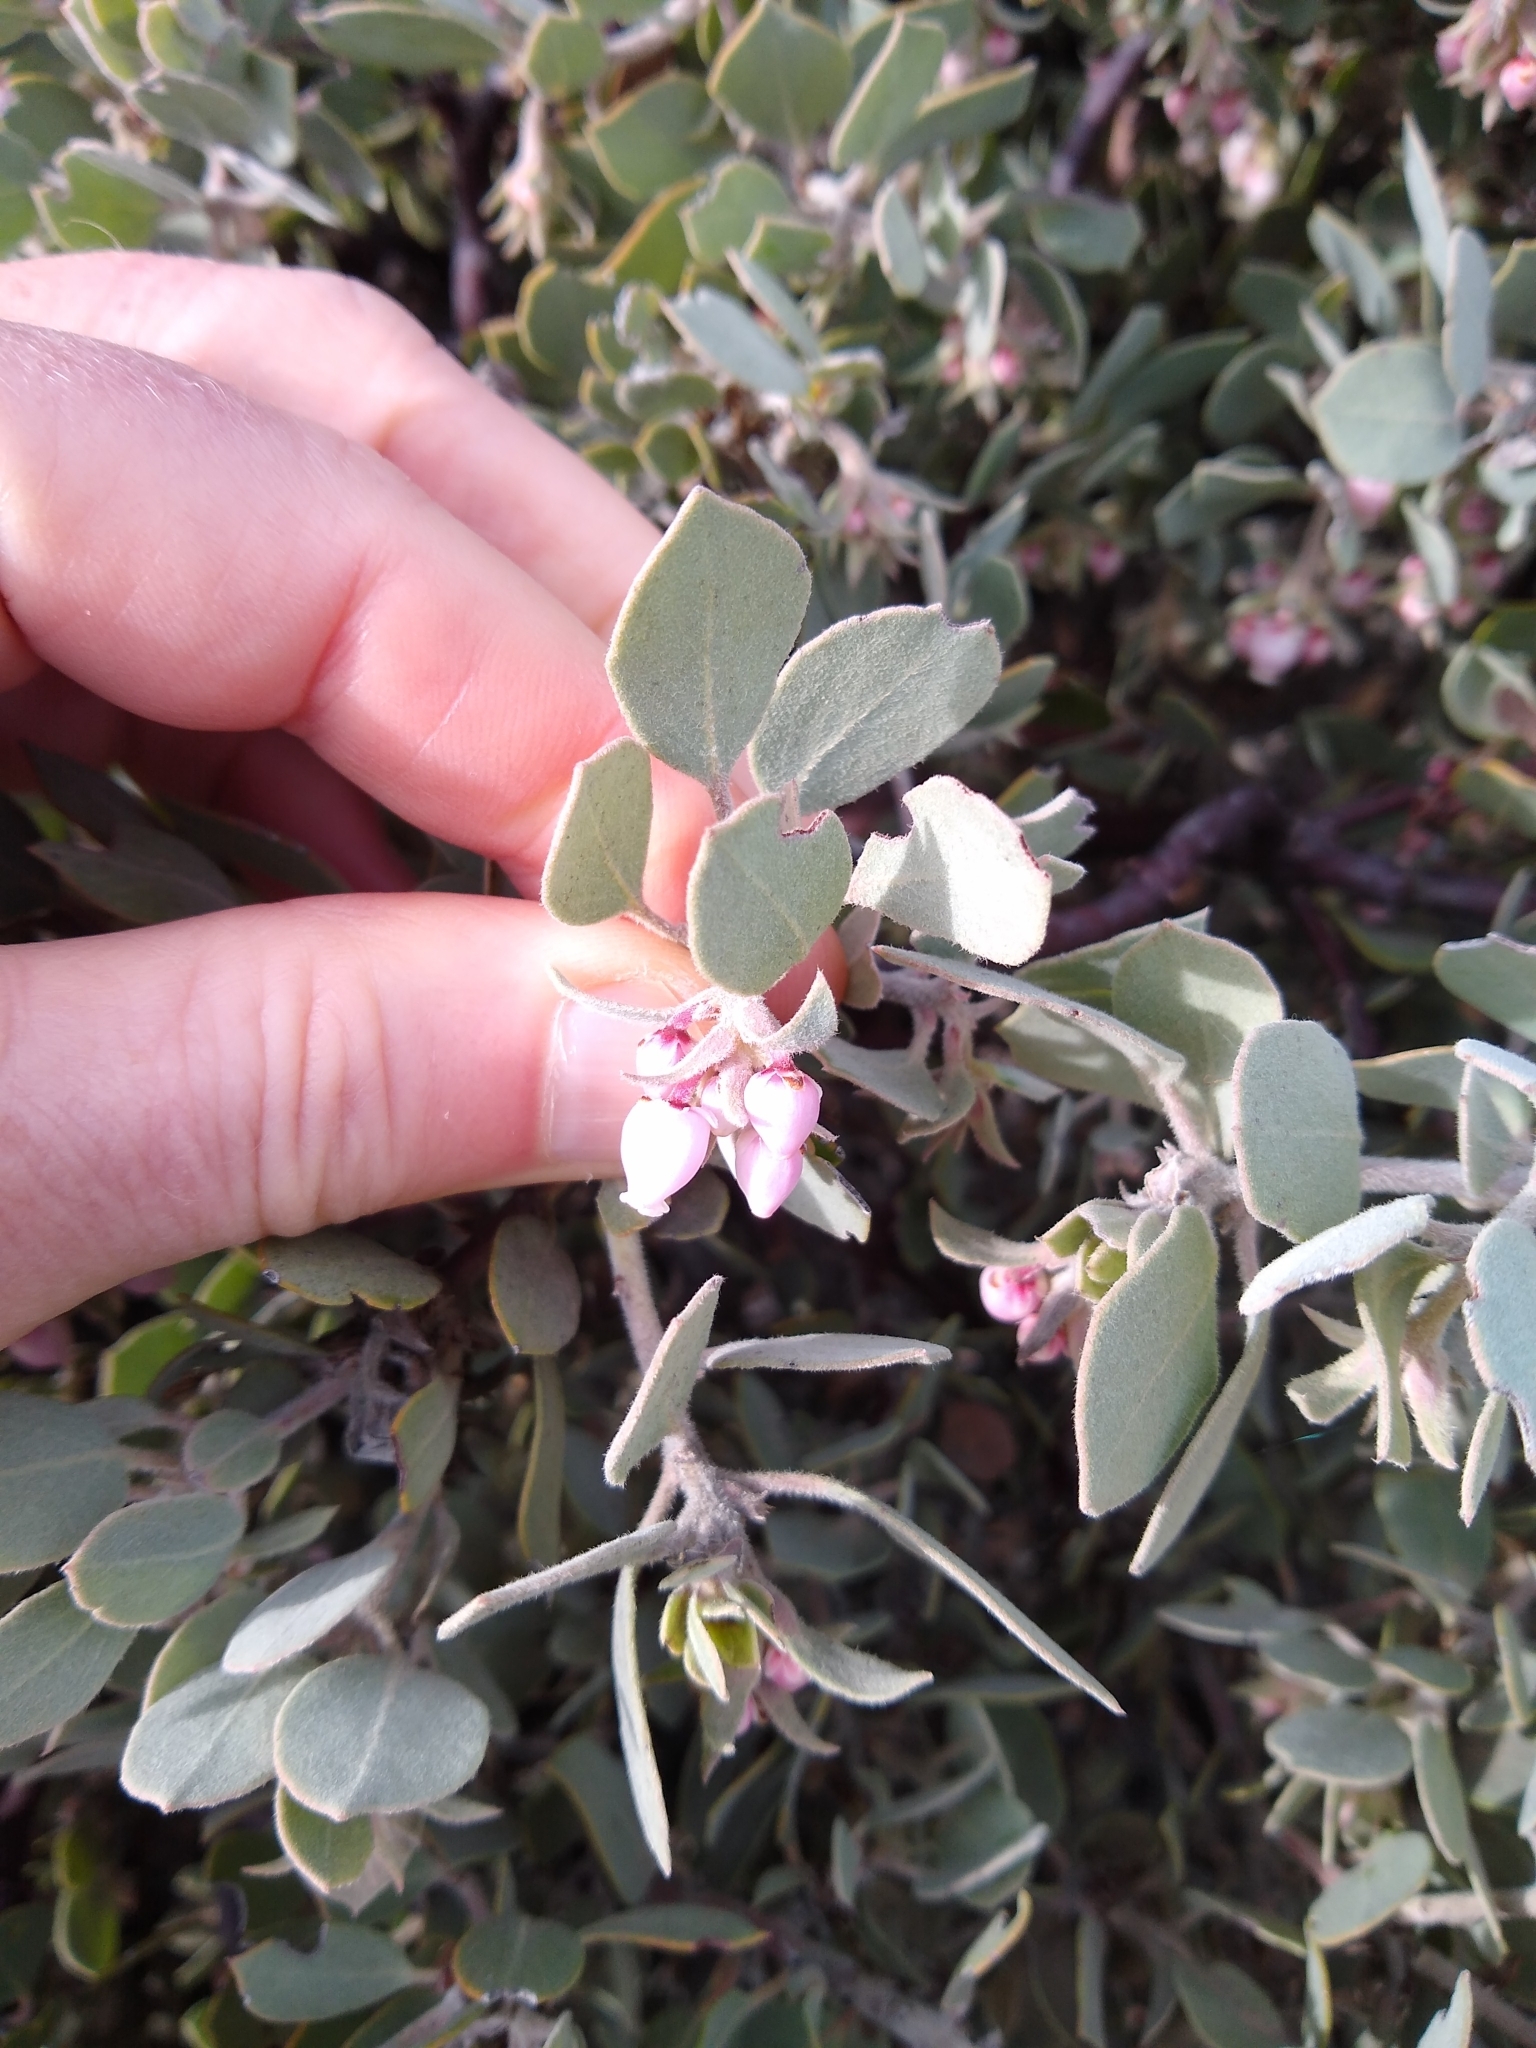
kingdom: Plantae
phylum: Tracheophyta
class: Magnoliopsida
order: Ericales
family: Ericaceae
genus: Arctostaphylos
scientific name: Arctostaphylos canescens
